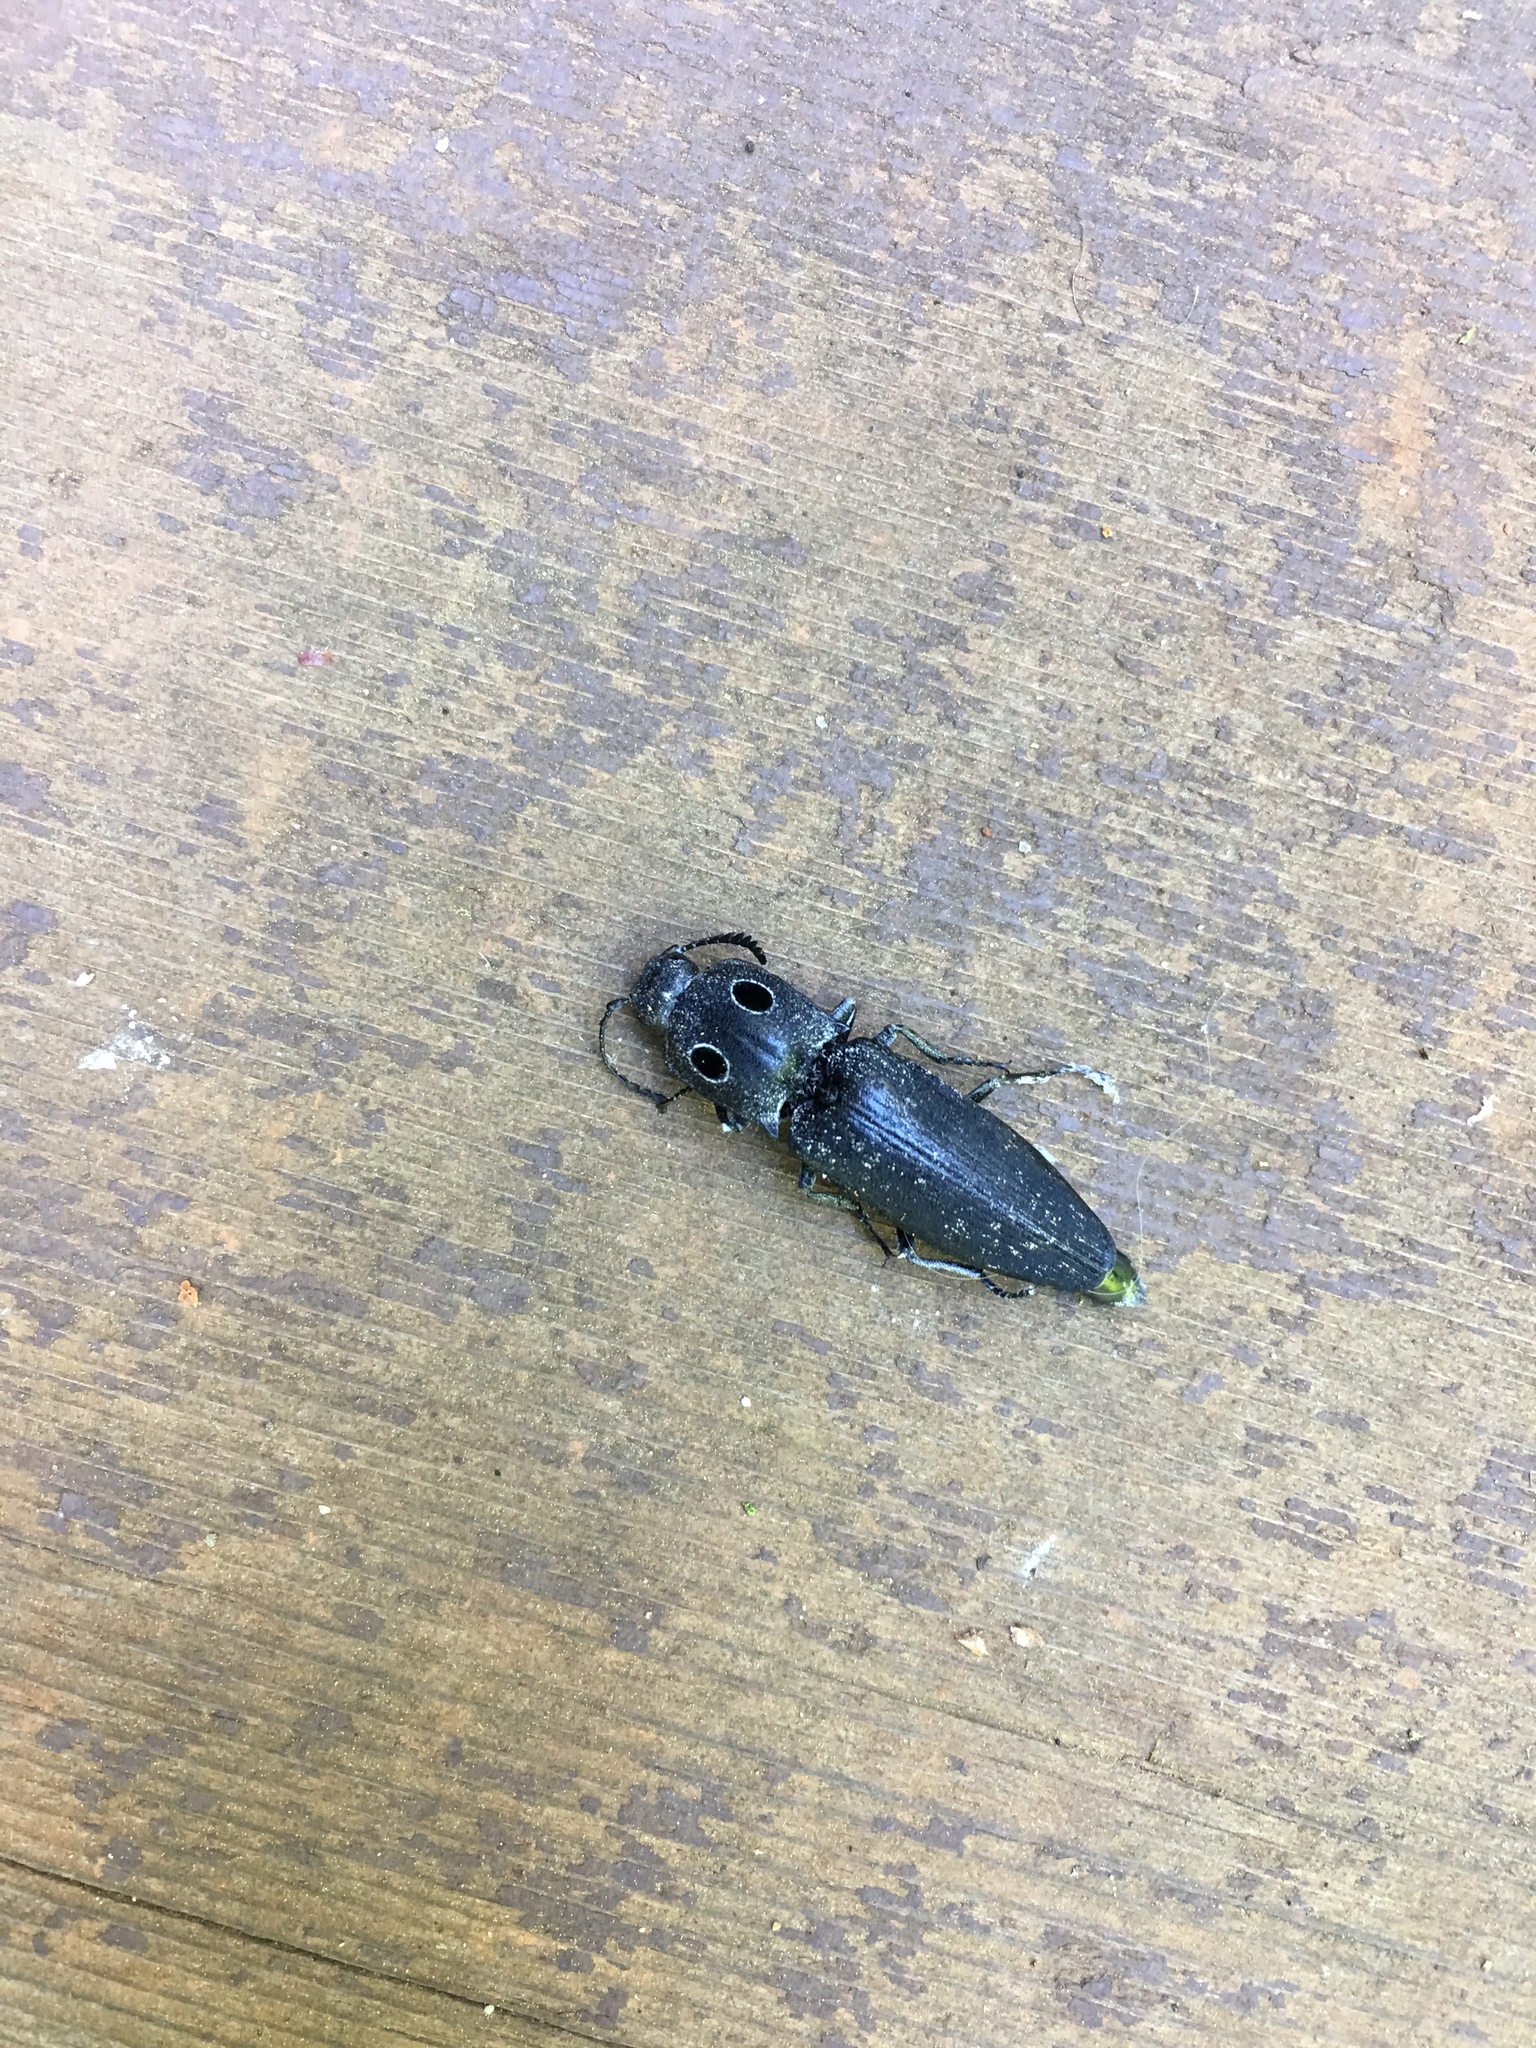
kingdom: Animalia
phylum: Arthropoda
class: Insecta
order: Coleoptera
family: Elateridae
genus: Alaus
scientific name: Alaus melanops
